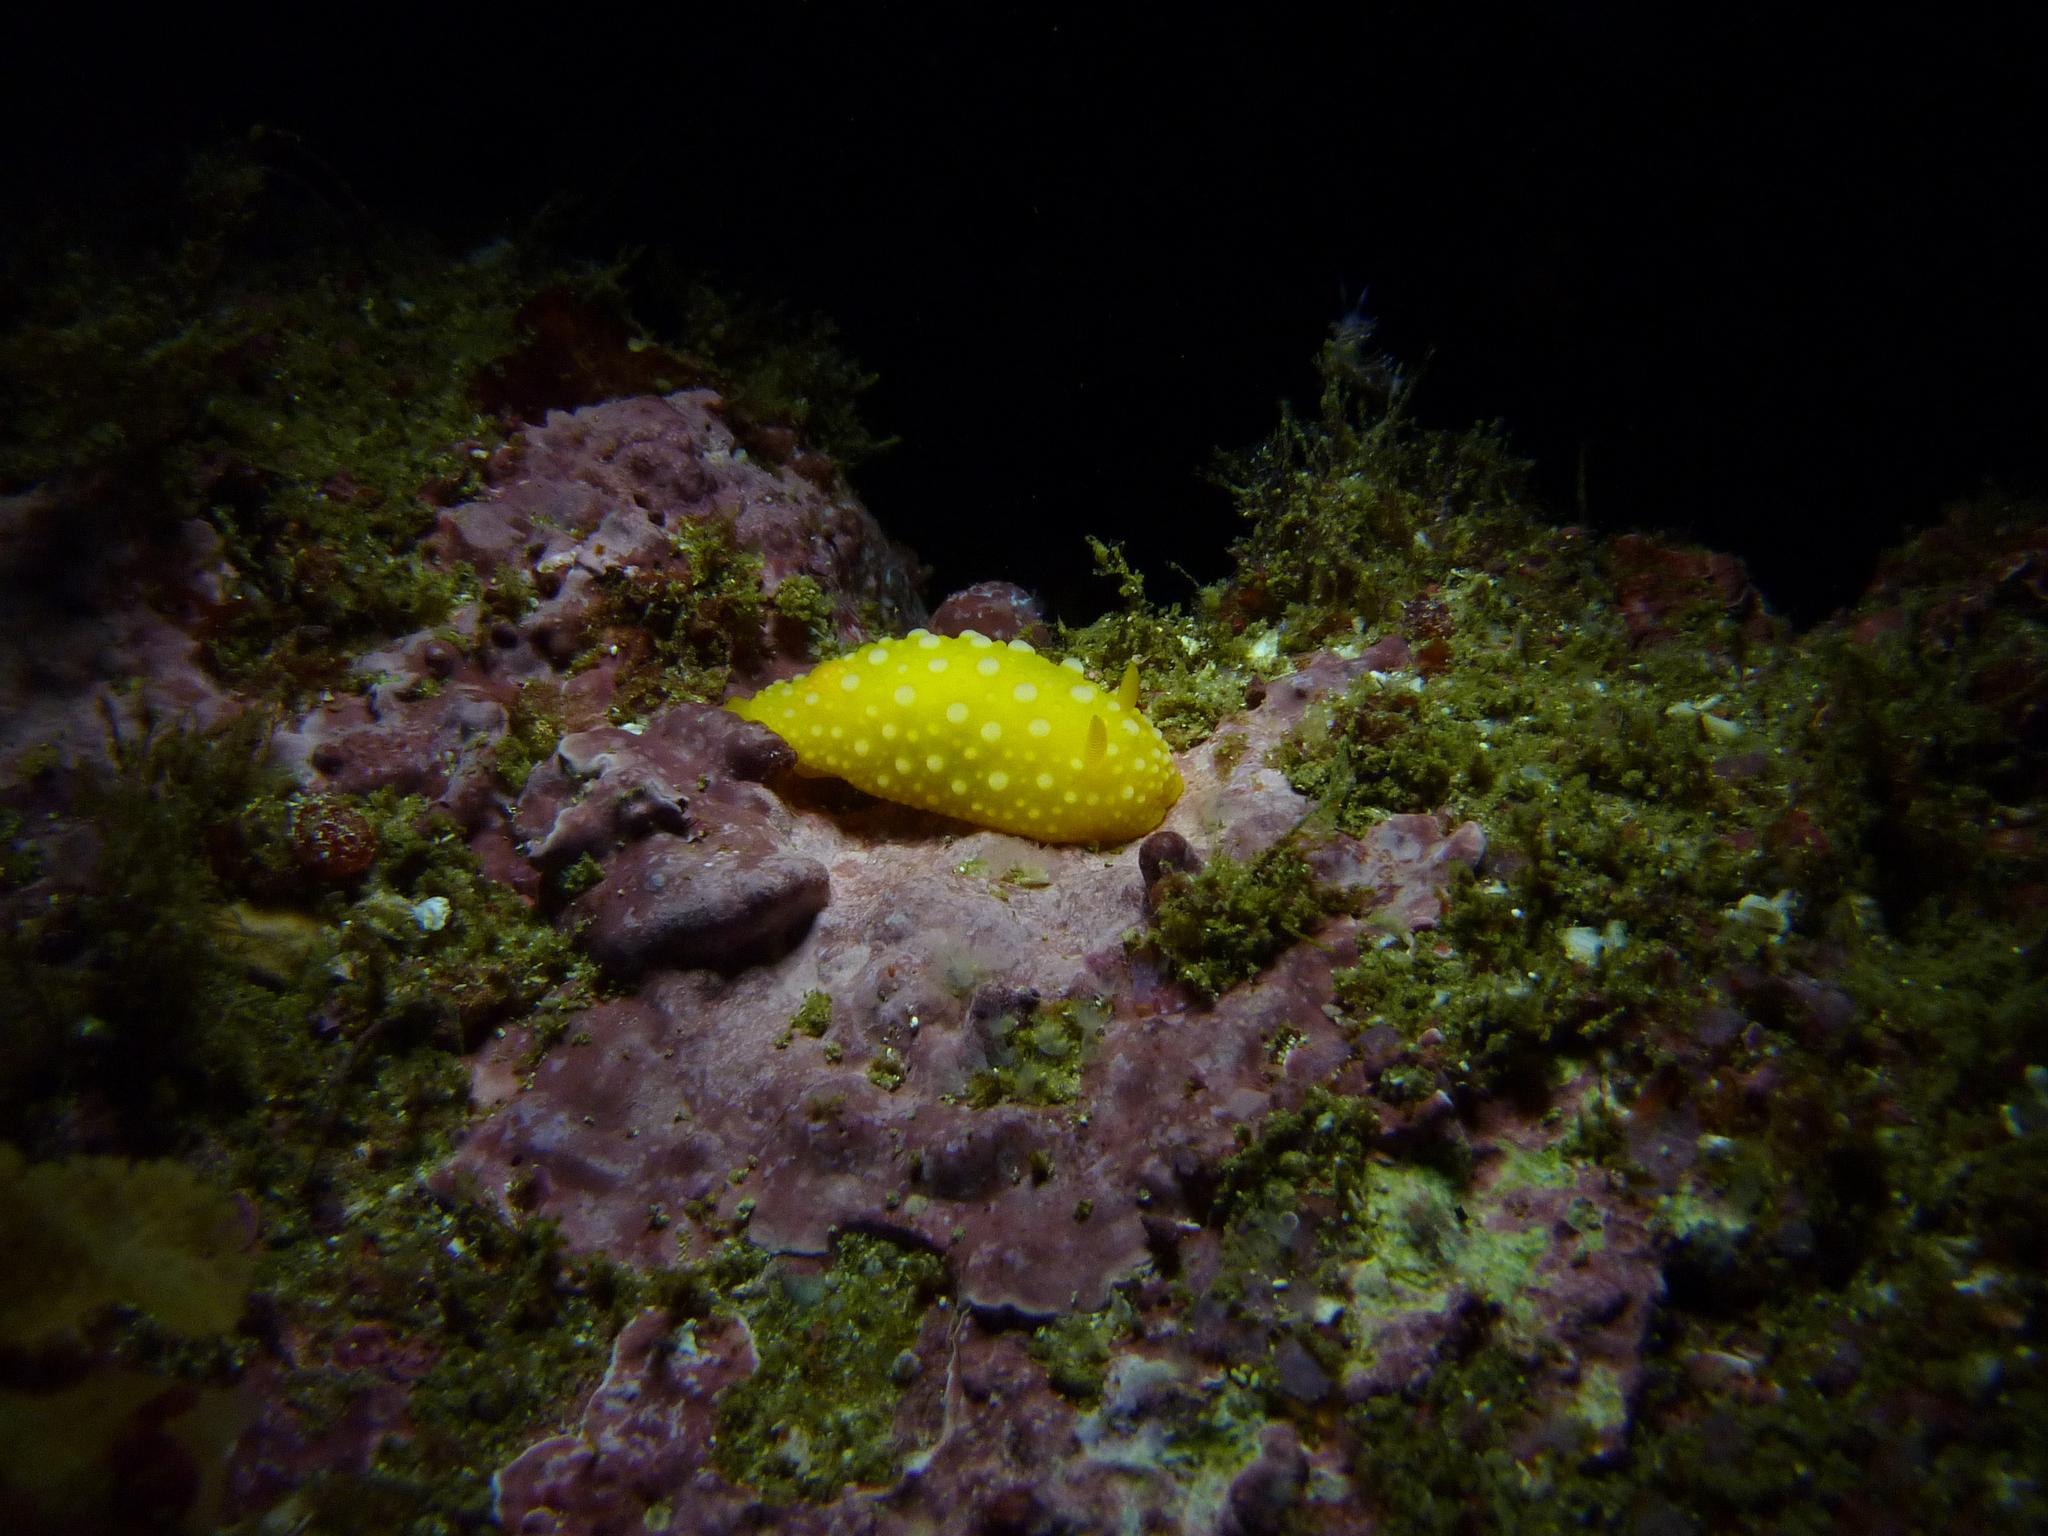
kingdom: Animalia
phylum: Mollusca
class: Gastropoda
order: Nudibranchia
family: Dorididae
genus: Doris
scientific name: Doris chrysoderma
